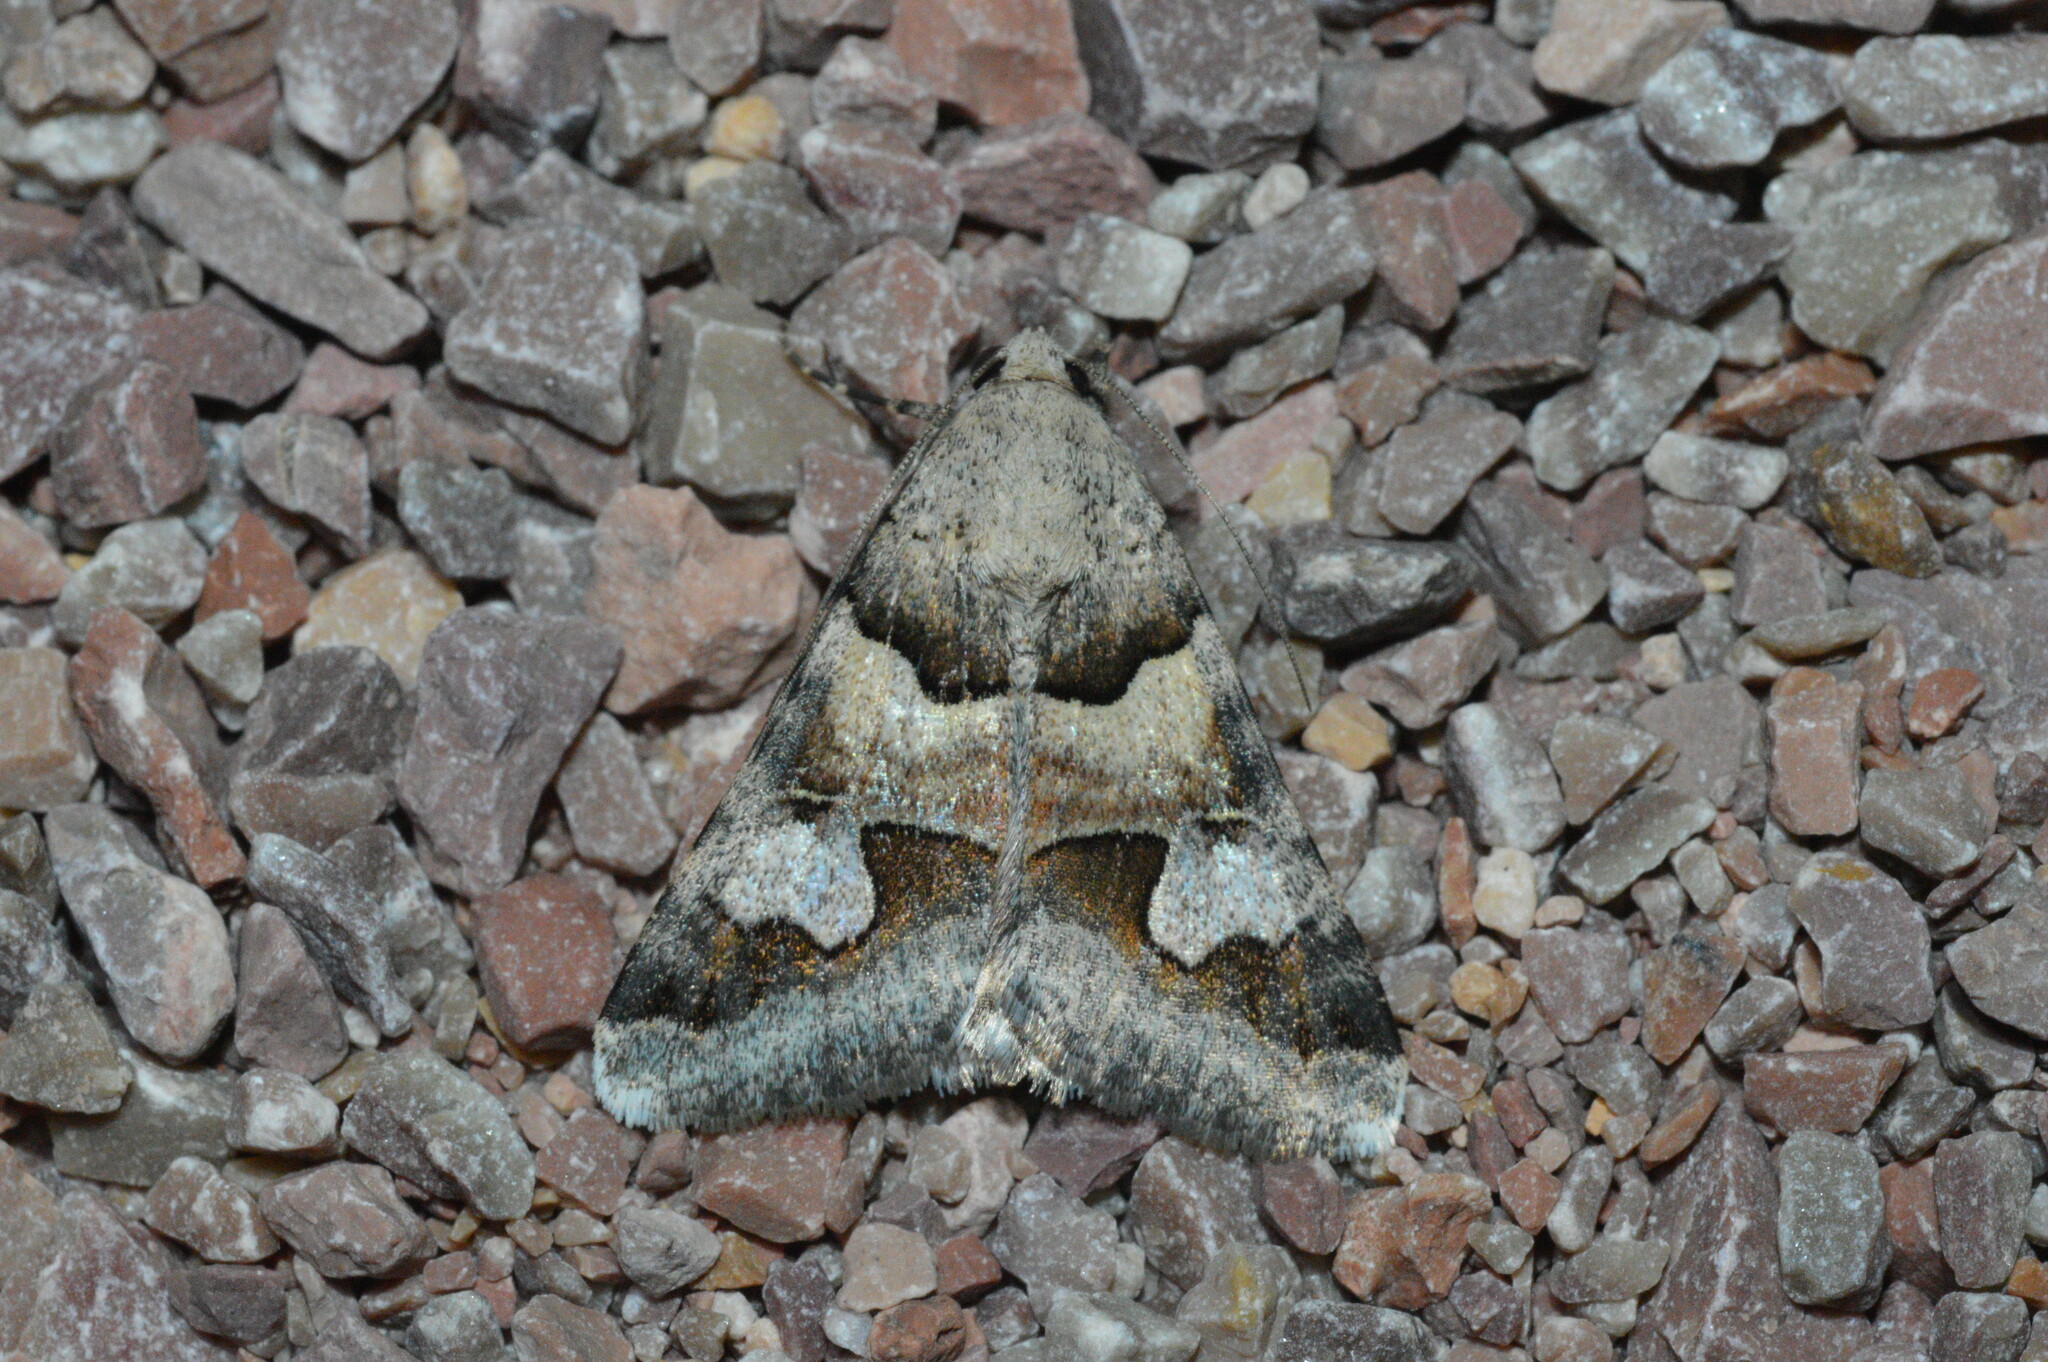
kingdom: Animalia
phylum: Arthropoda
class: Insecta
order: Lepidoptera
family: Erebidae
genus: Drasteria
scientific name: Drasteria pallescens
